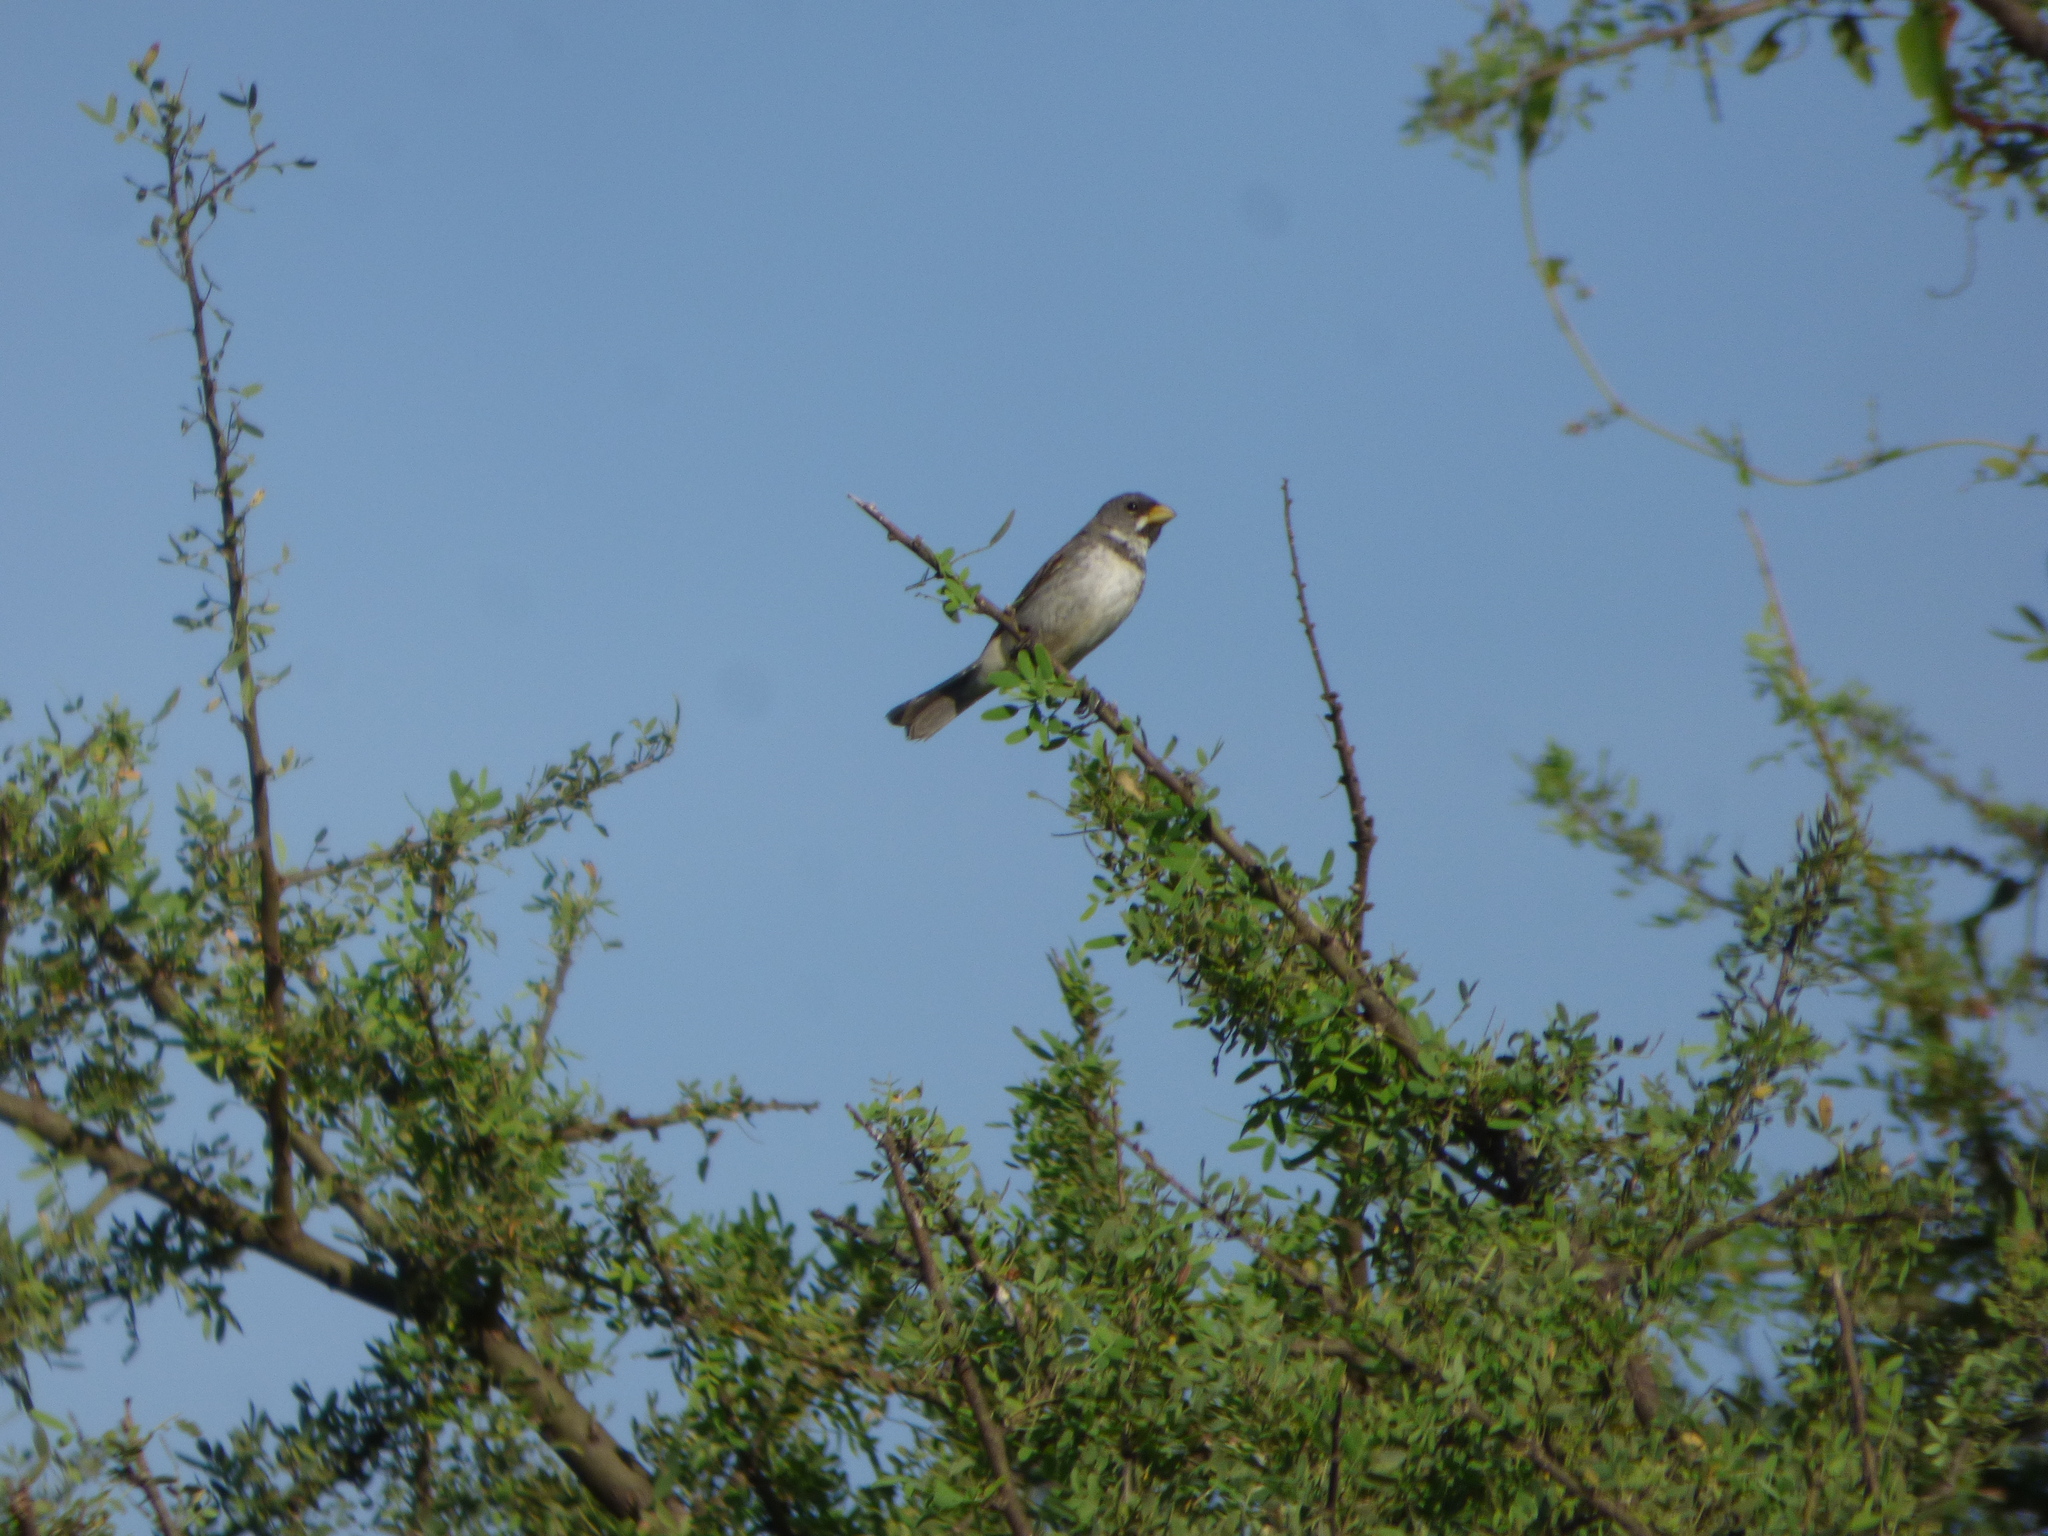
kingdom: Animalia
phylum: Chordata
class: Aves
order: Passeriformes
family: Thraupidae
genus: Sporophila
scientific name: Sporophila caerulescens
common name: Double-collared seedeater
